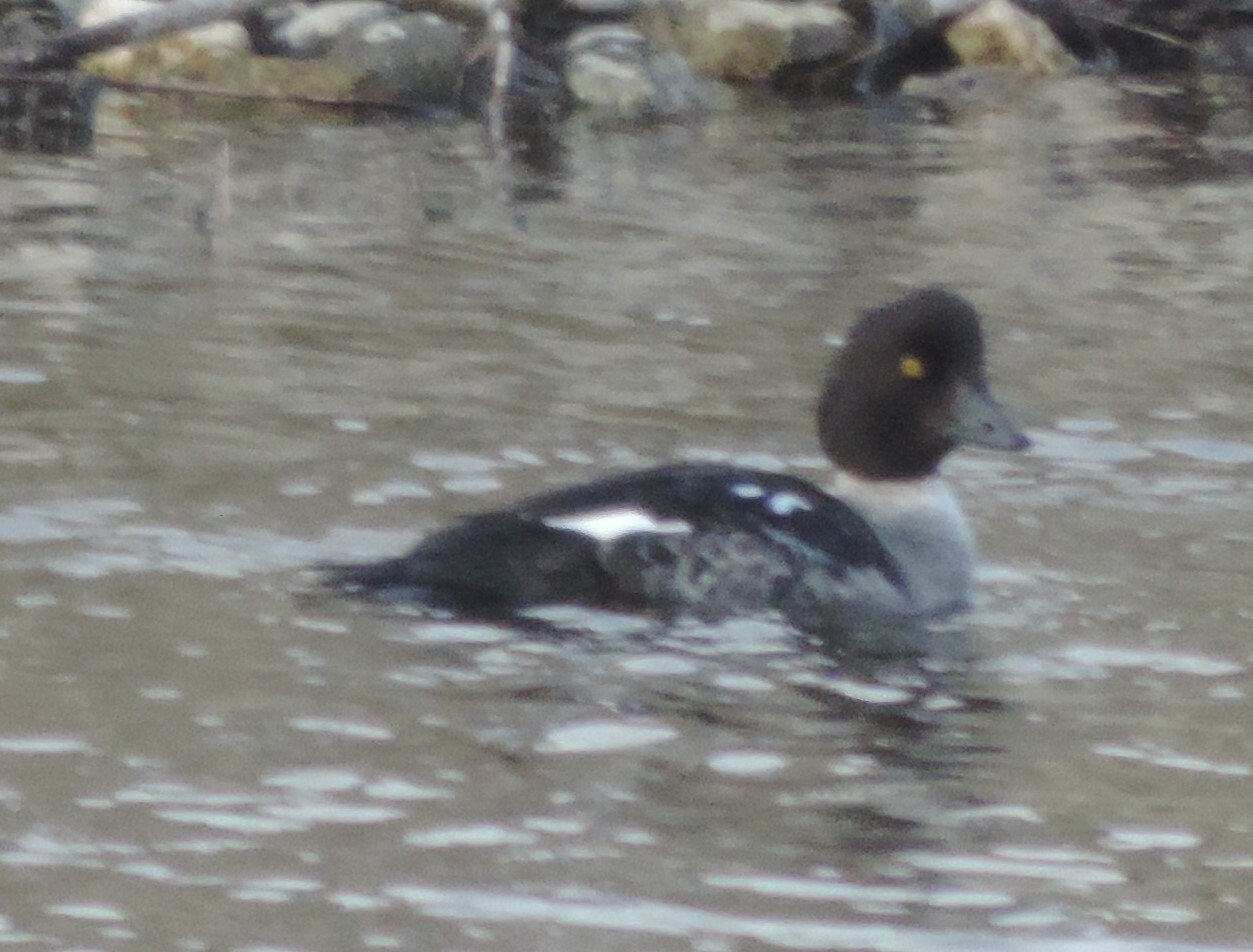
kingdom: Animalia
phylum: Chordata
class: Aves
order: Anseriformes
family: Anatidae
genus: Bucephala
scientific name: Bucephala islandica
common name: Barrow's goldeneye
